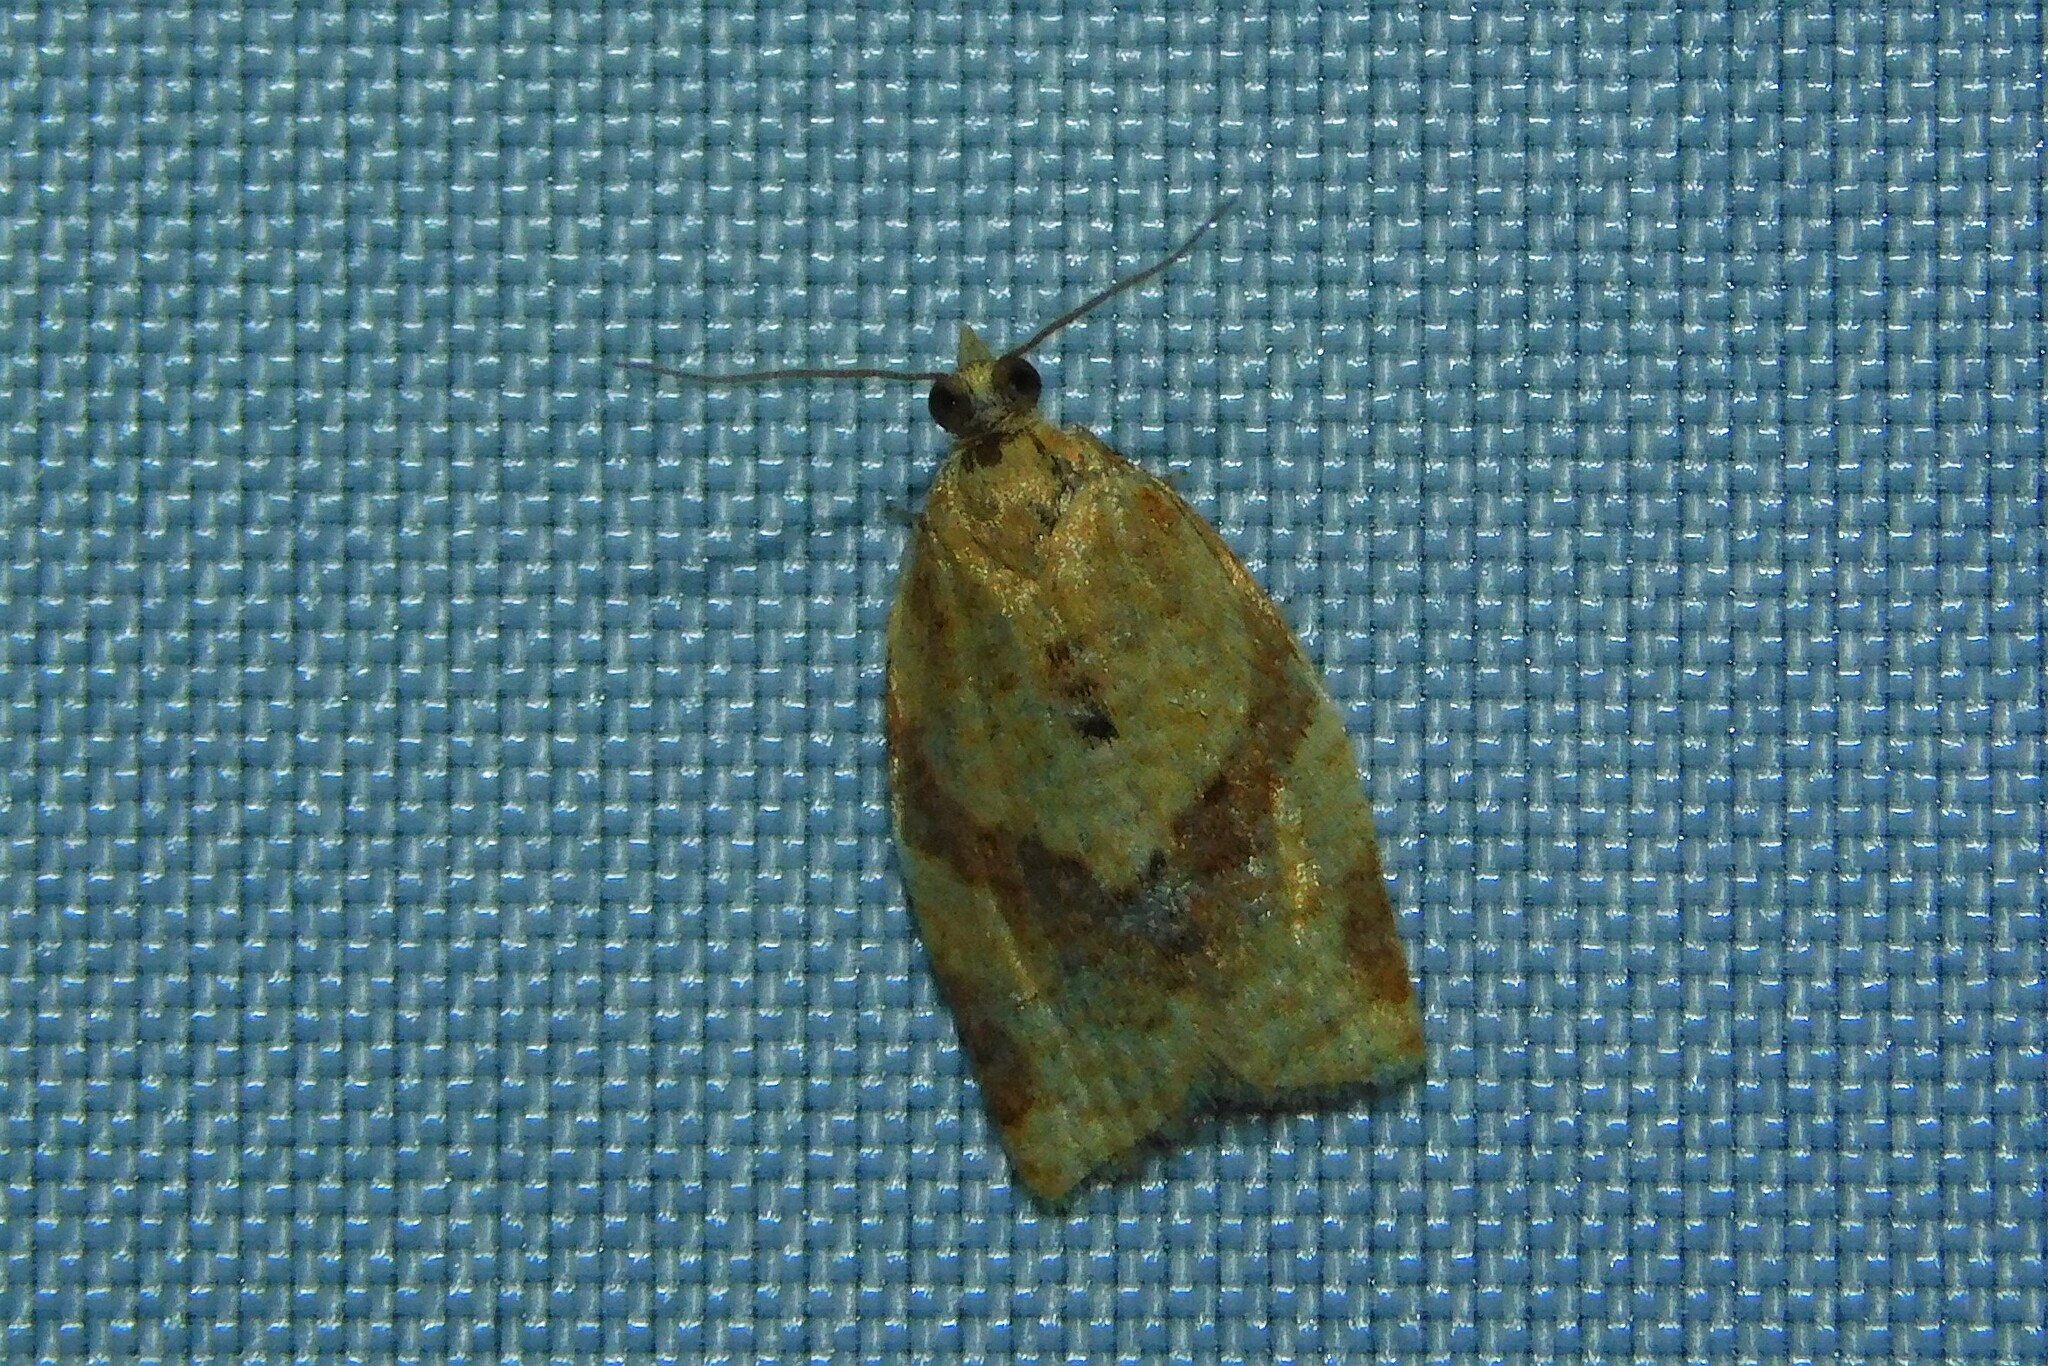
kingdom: Animalia
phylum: Arthropoda
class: Insecta
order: Lepidoptera
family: Tortricidae
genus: Clepsis
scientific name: Clepsis consimilana
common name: Privet tortrix
